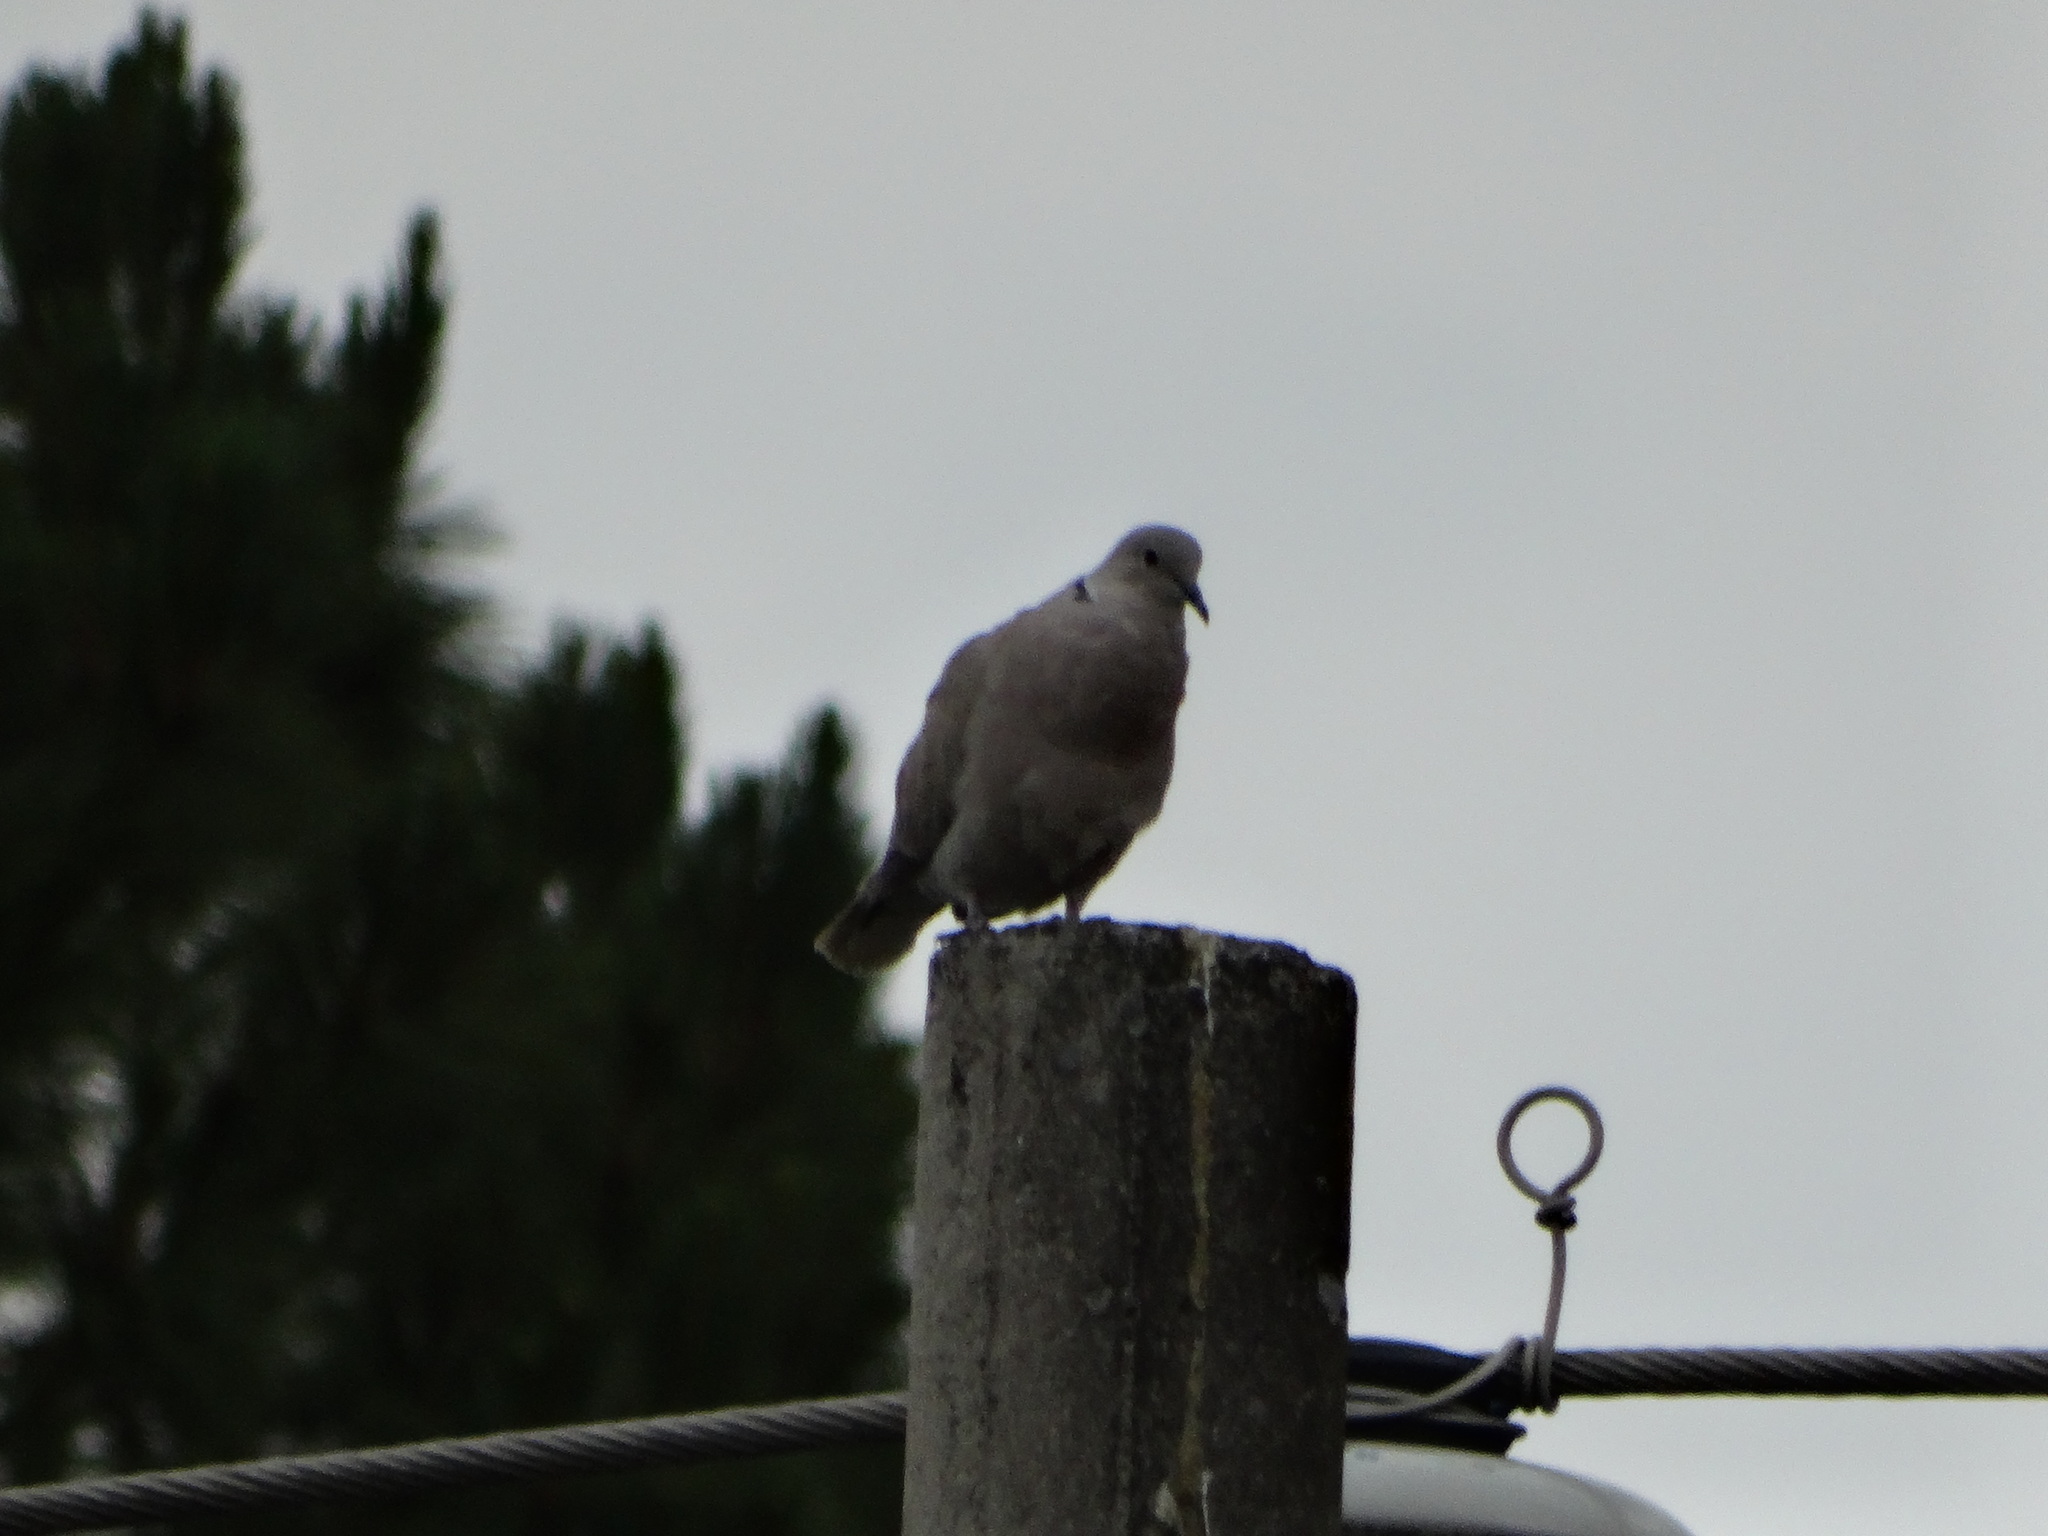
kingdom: Animalia
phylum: Chordata
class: Aves
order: Columbiformes
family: Columbidae
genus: Streptopelia
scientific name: Streptopelia decaocto
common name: Eurasian collared dove
